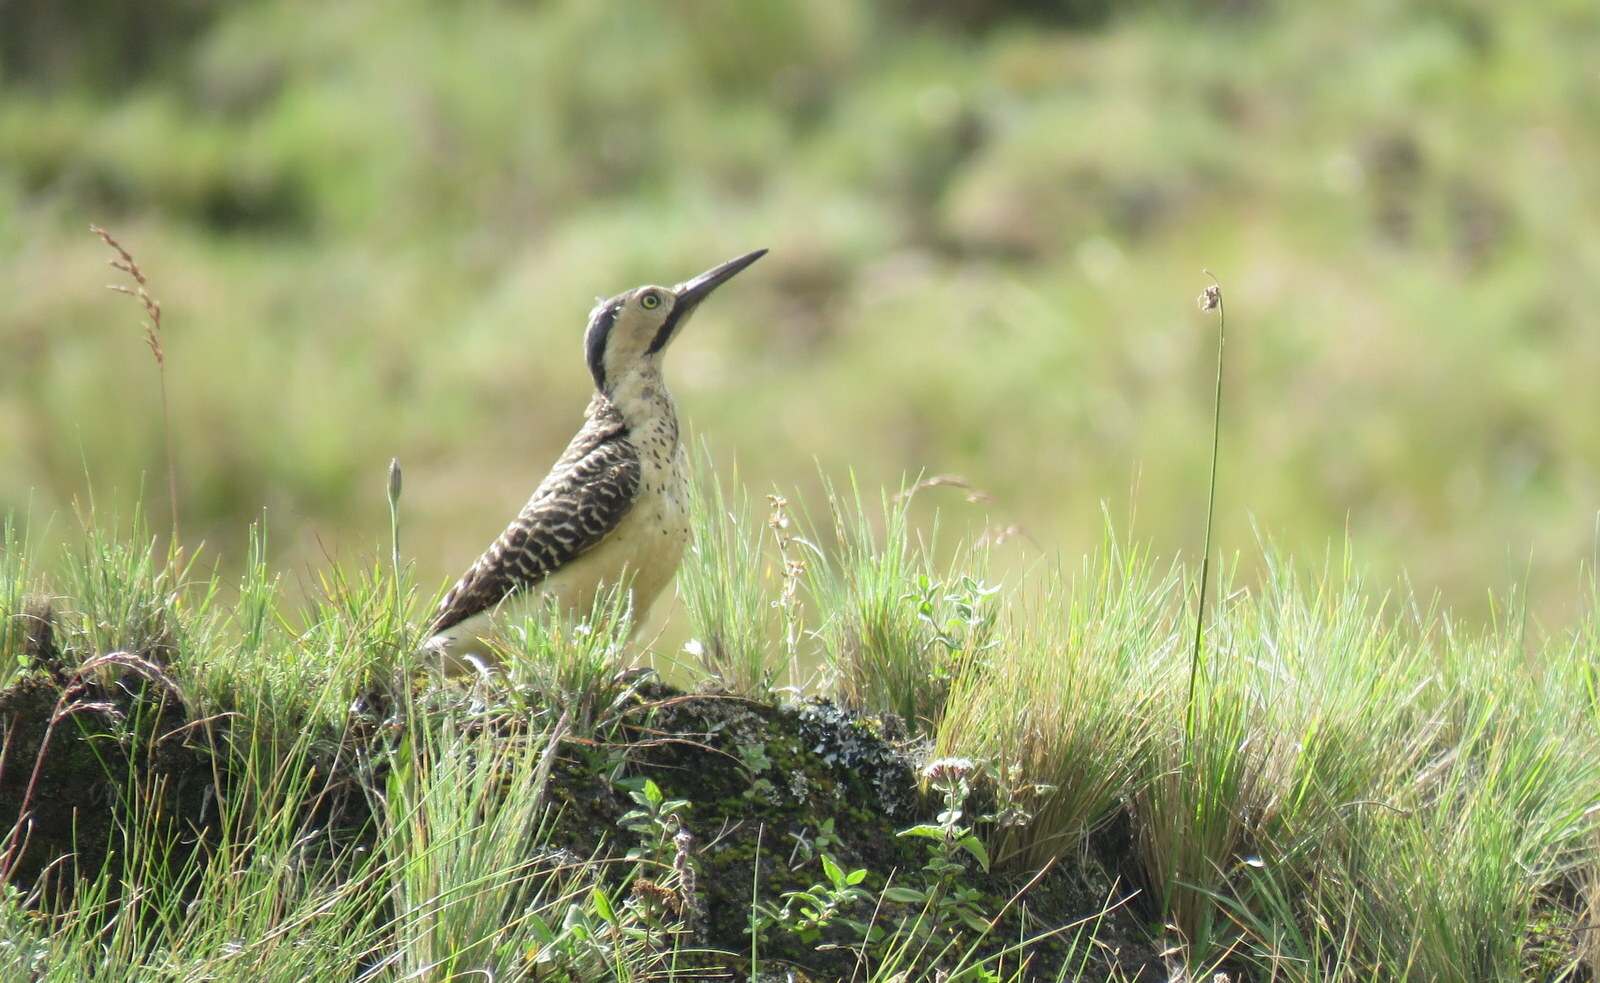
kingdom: Animalia
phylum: Chordata
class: Aves
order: Piciformes
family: Picidae
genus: Colaptes
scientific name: Colaptes rupicola
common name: Andean flicker
